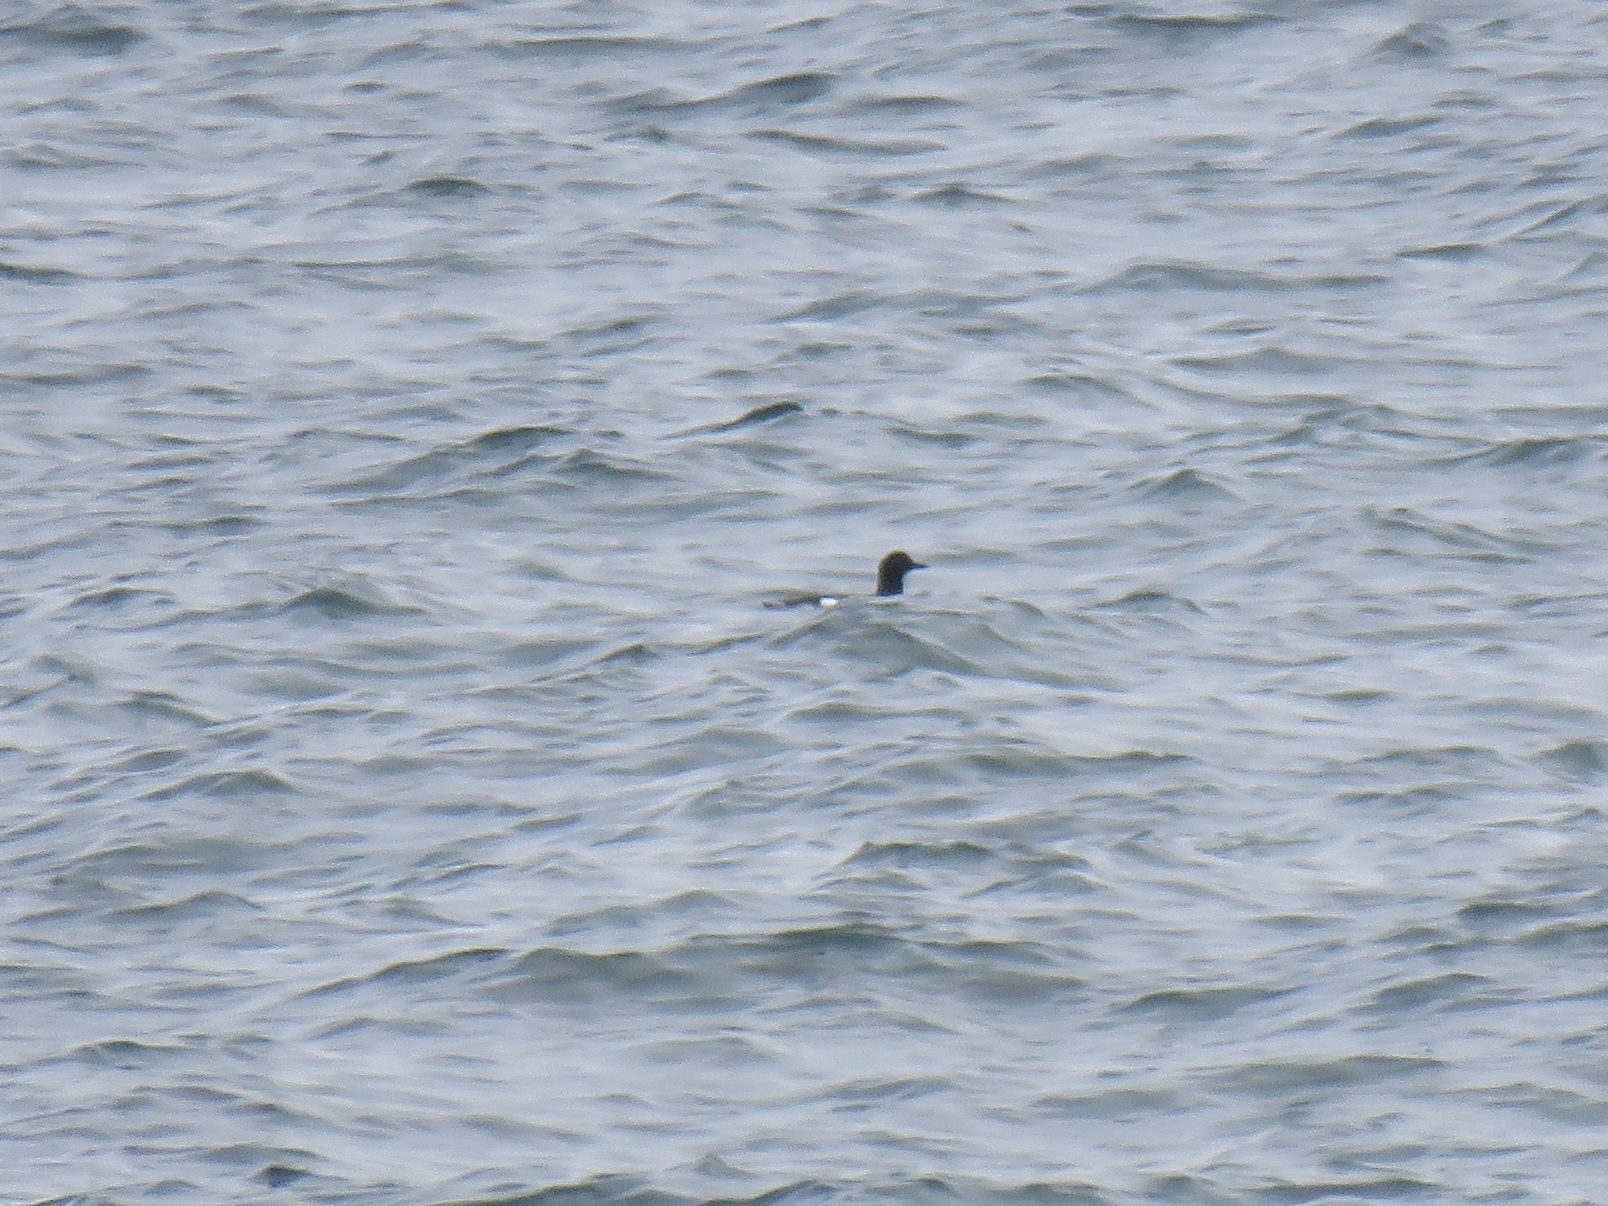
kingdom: Animalia
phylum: Chordata
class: Aves
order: Charadriiformes
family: Alcidae
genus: Cepphus
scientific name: Cepphus columba
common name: Pigeon guillemot
